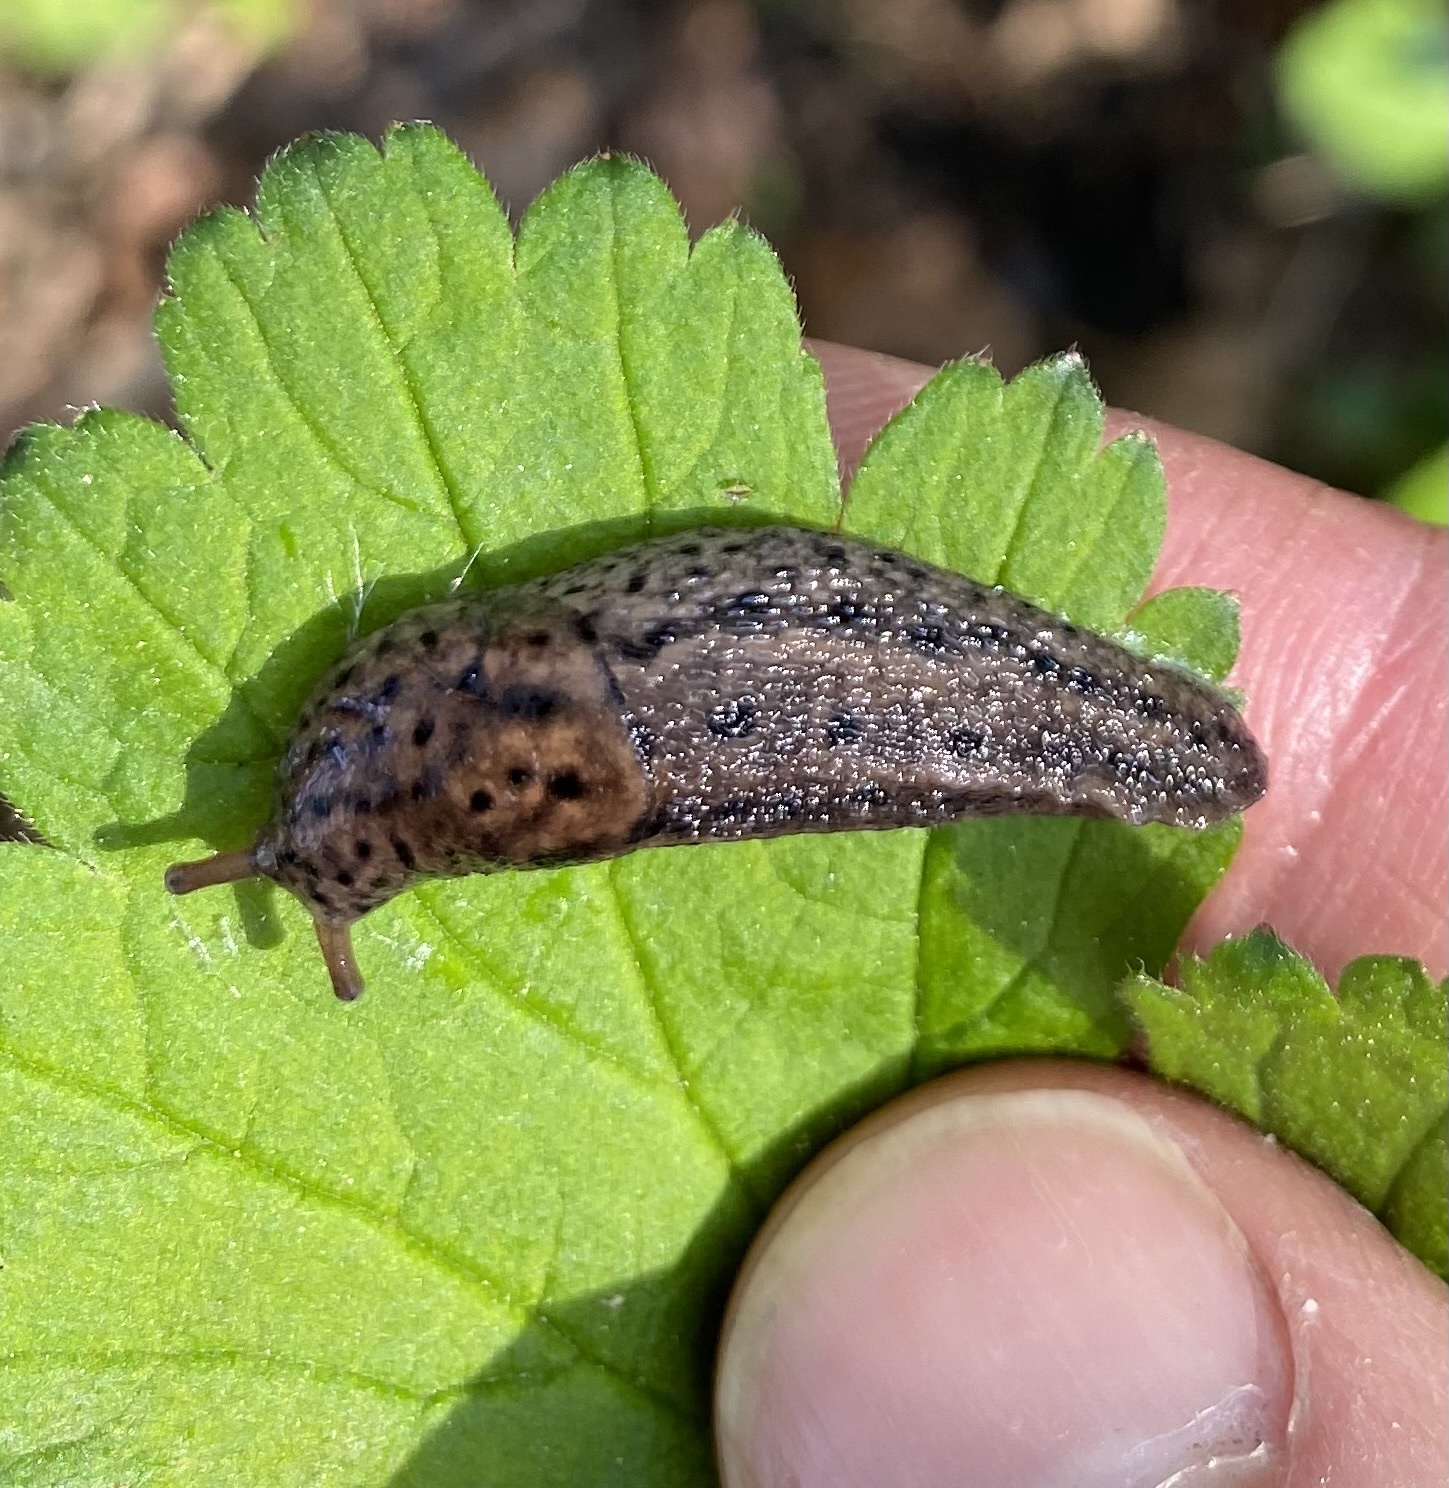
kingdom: Animalia
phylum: Mollusca
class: Gastropoda
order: Stylommatophora
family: Limacidae
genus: Limax
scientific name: Limax maximus
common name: Great grey slug
